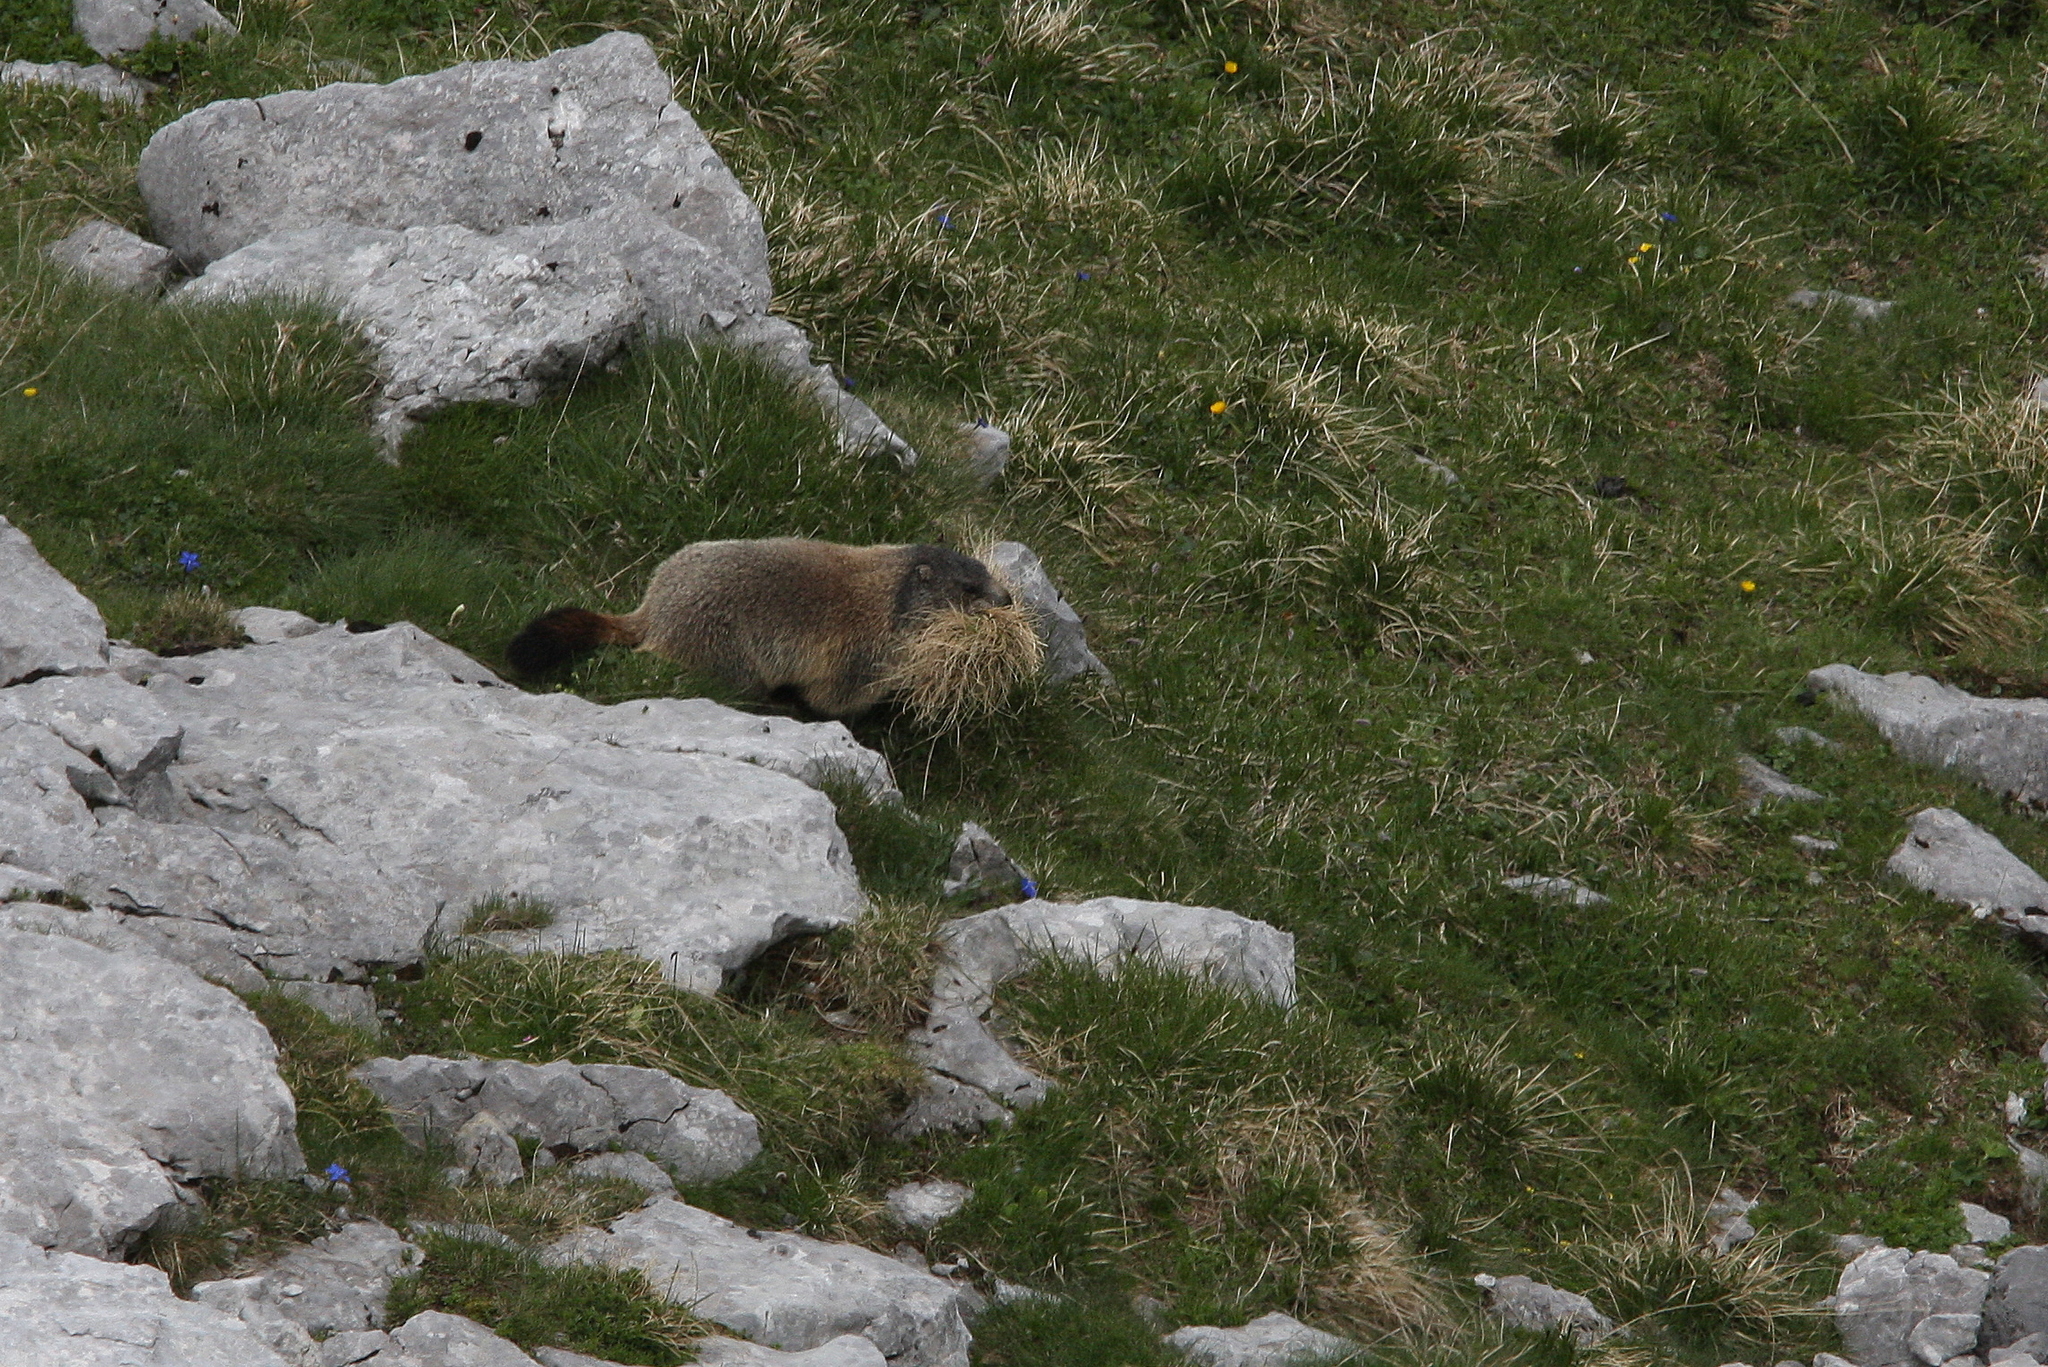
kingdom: Animalia
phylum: Chordata
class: Mammalia
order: Rodentia
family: Sciuridae
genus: Marmota
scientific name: Marmota marmota
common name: Alpine marmot
